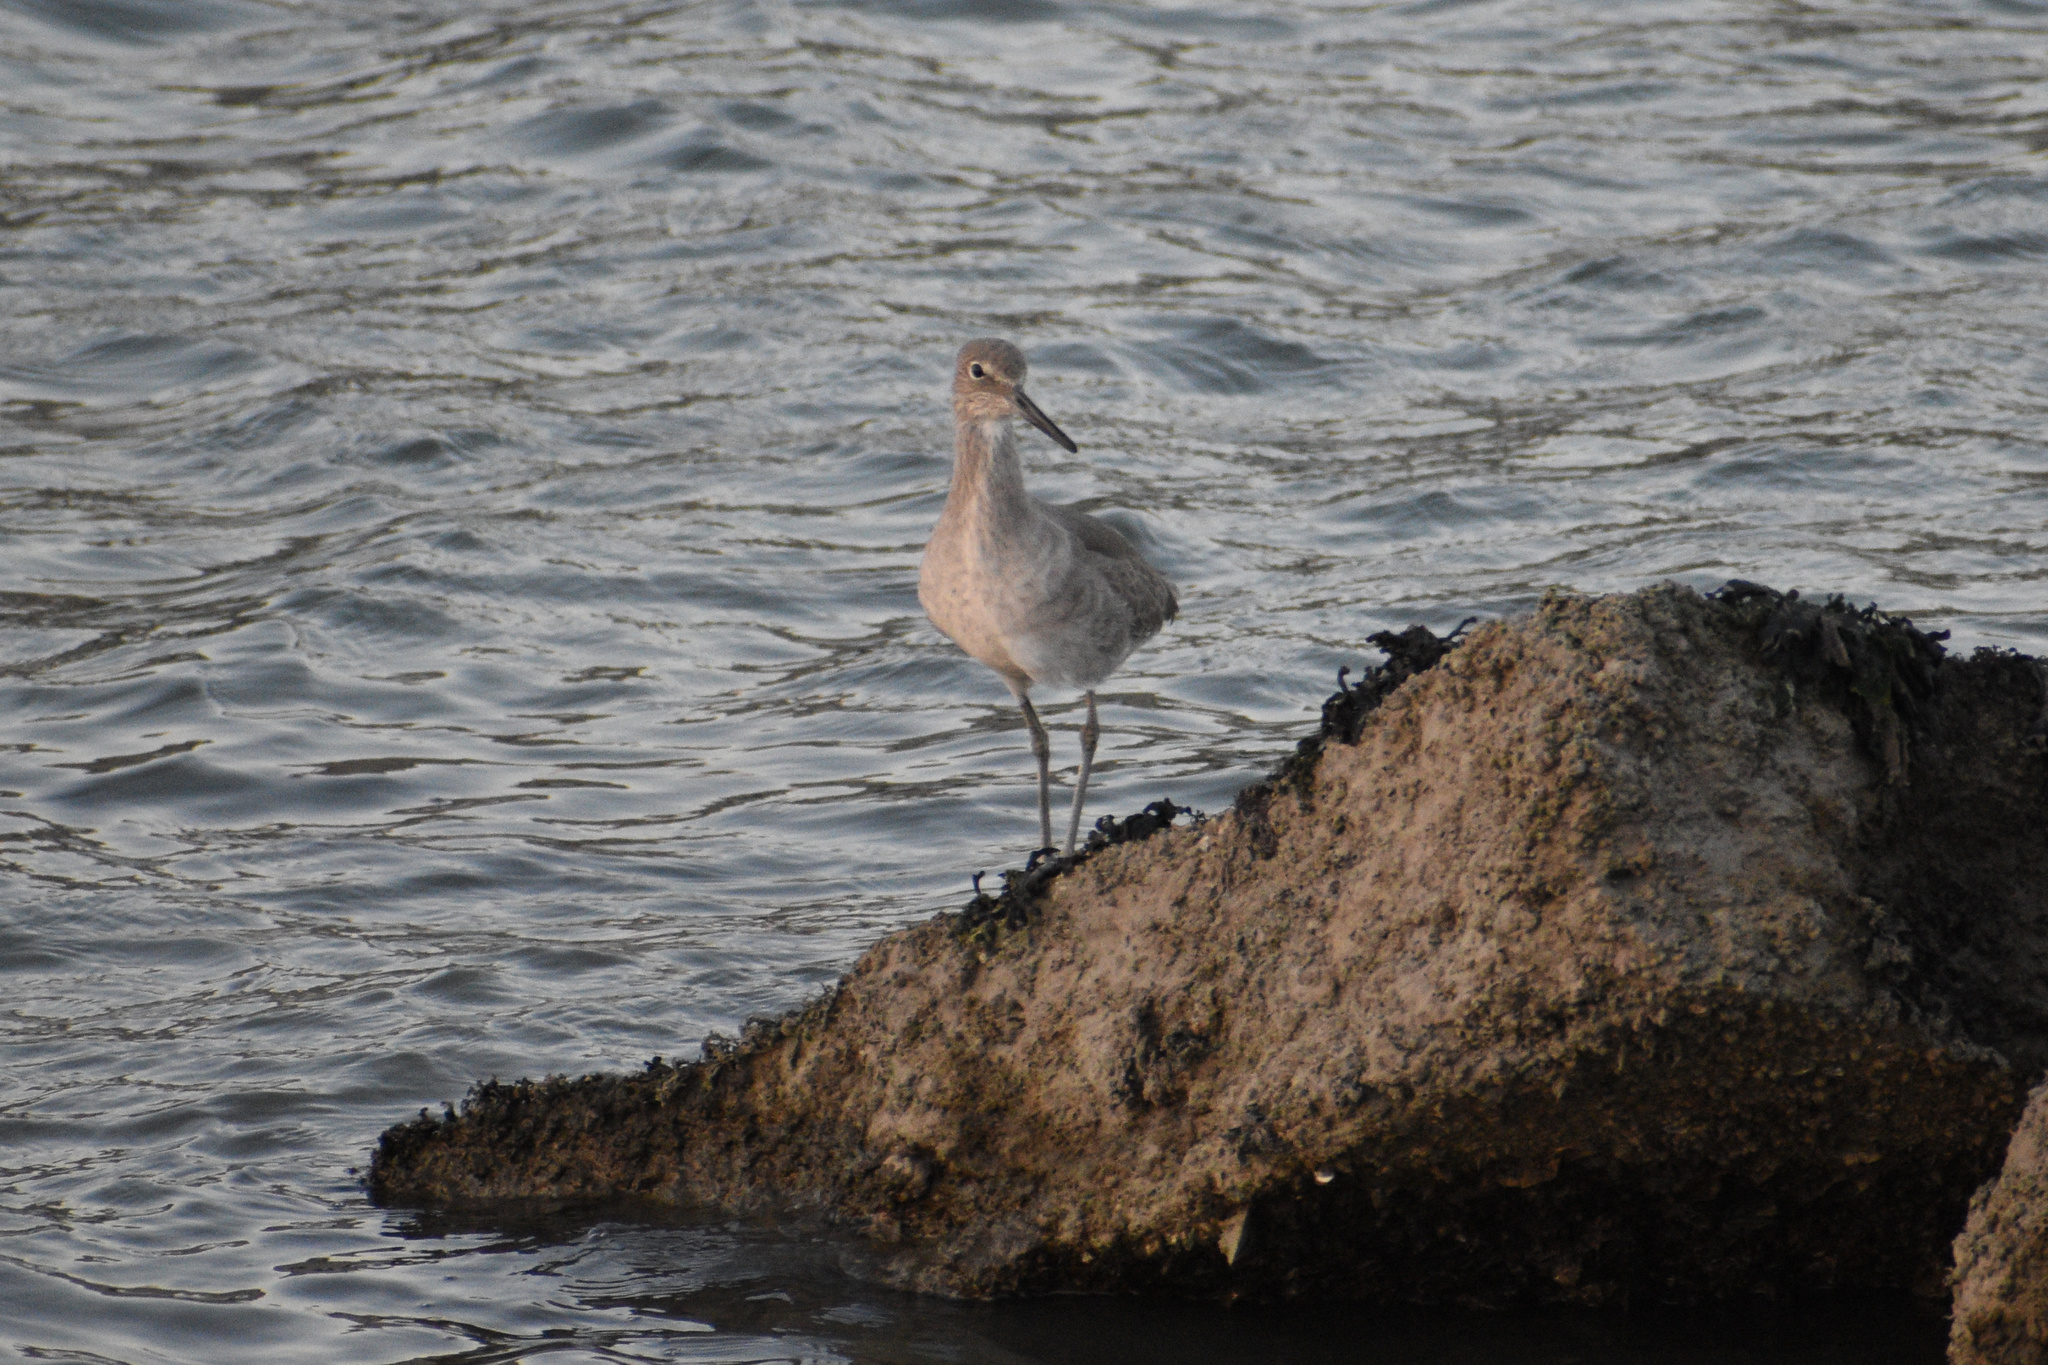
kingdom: Animalia
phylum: Chordata
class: Aves
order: Charadriiformes
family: Scolopacidae
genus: Tringa
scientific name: Tringa semipalmata
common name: Willet
